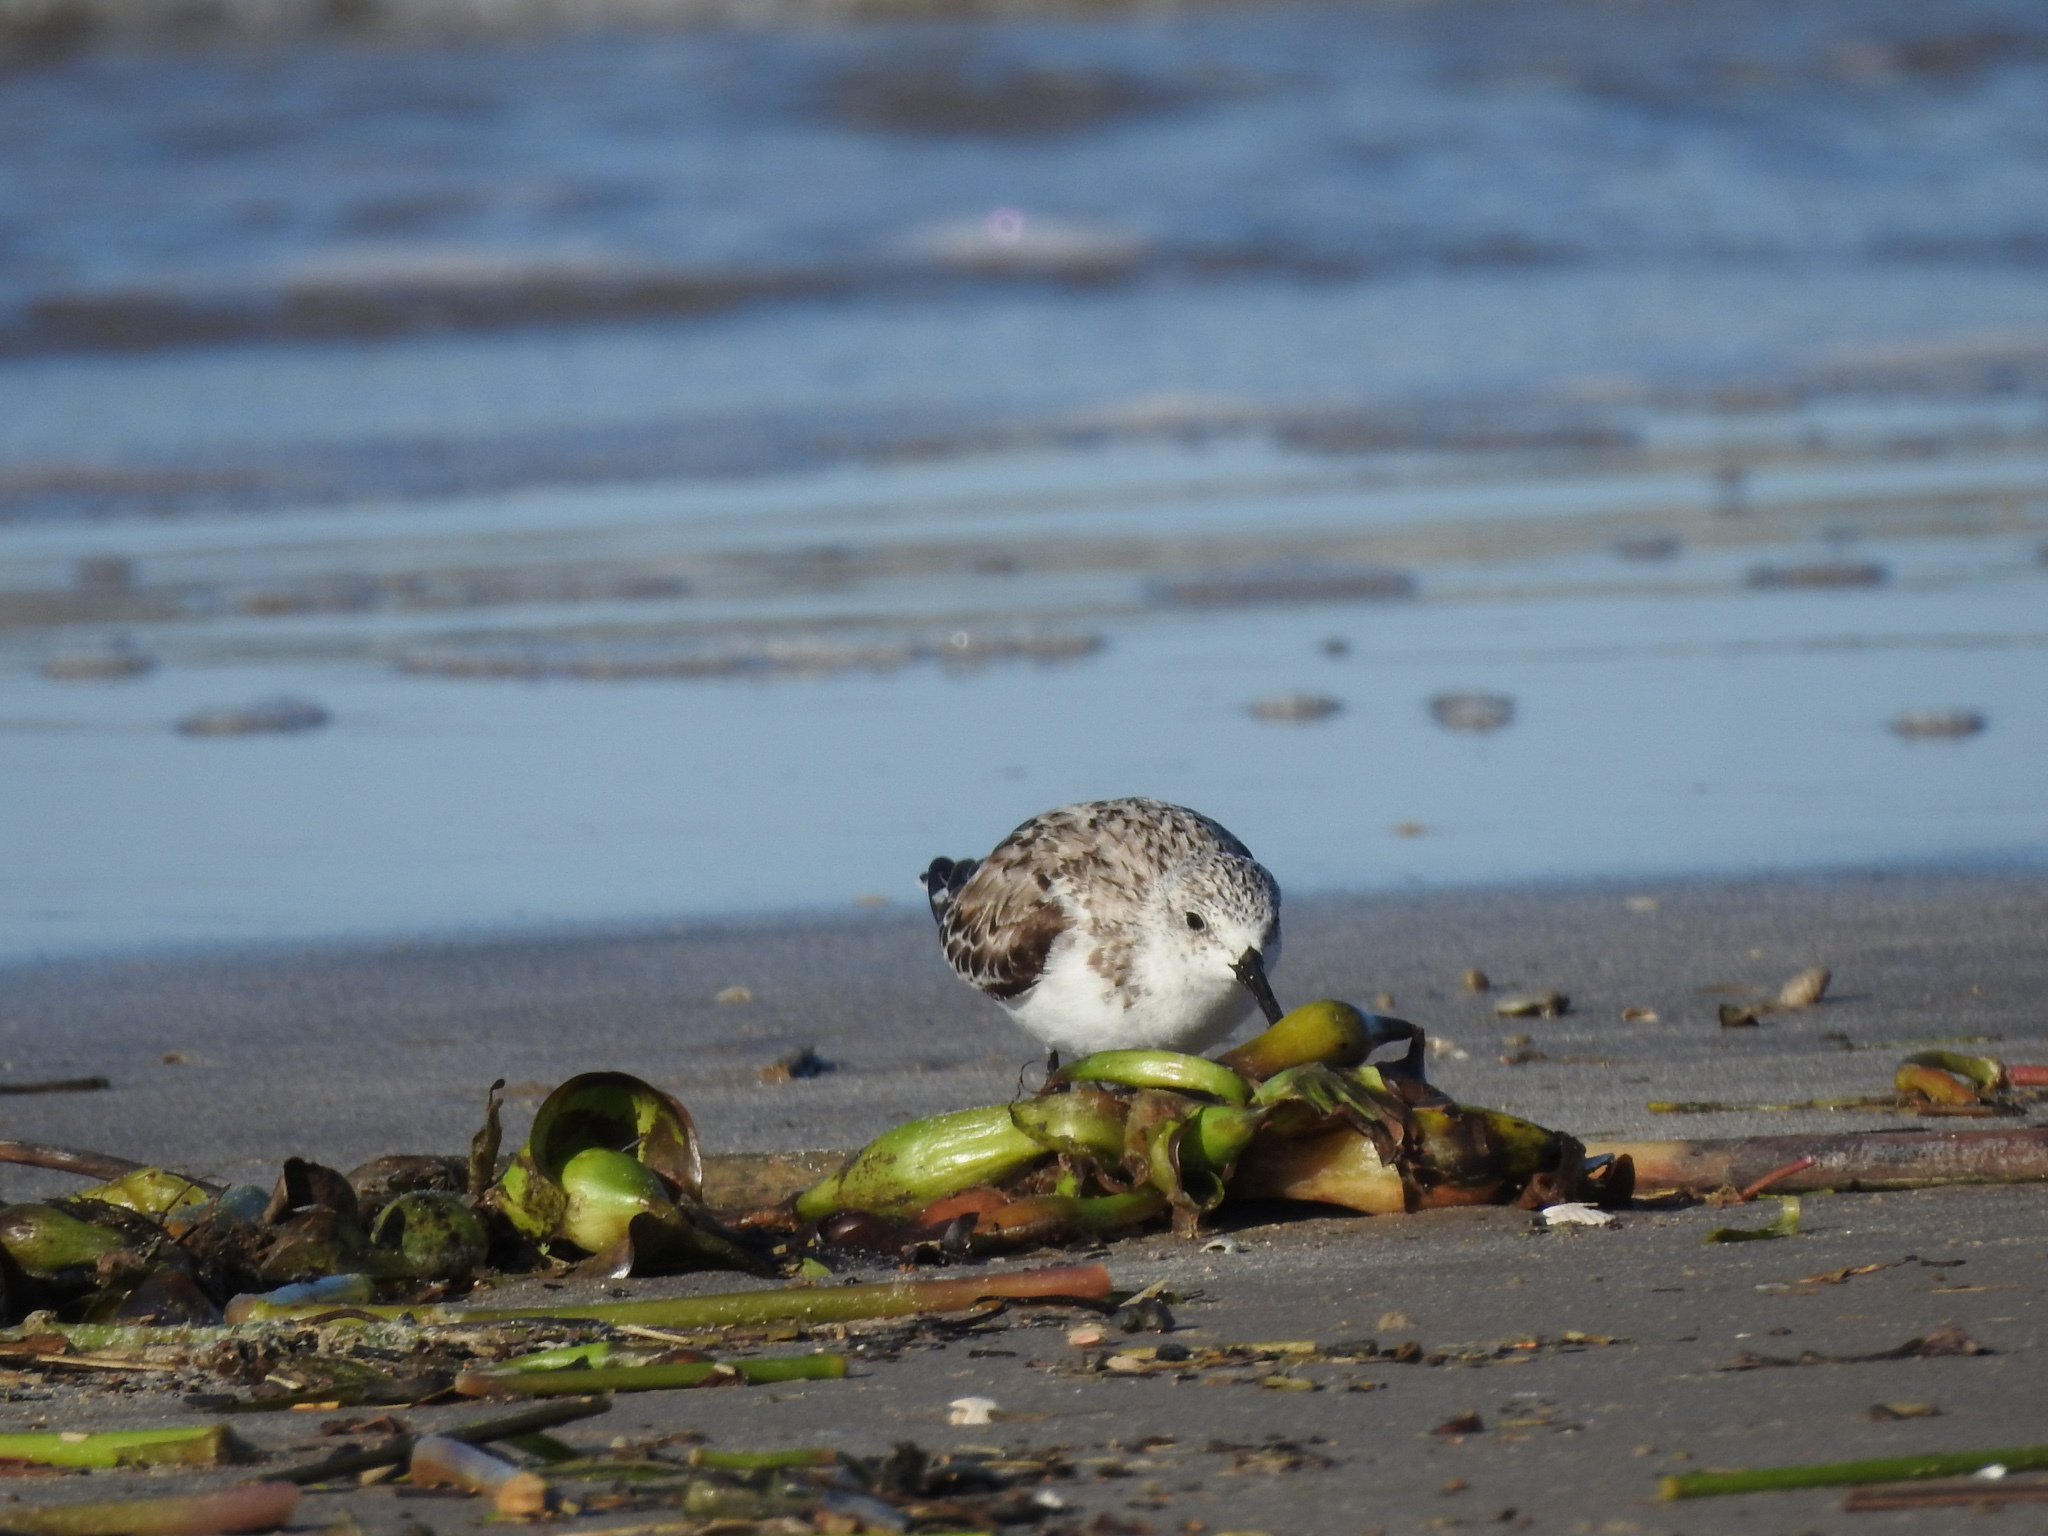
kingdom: Animalia
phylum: Chordata
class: Aves
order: Charadriiformes
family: Scolopacidae
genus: Calidris
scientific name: Calidris alba
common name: Sanderling
